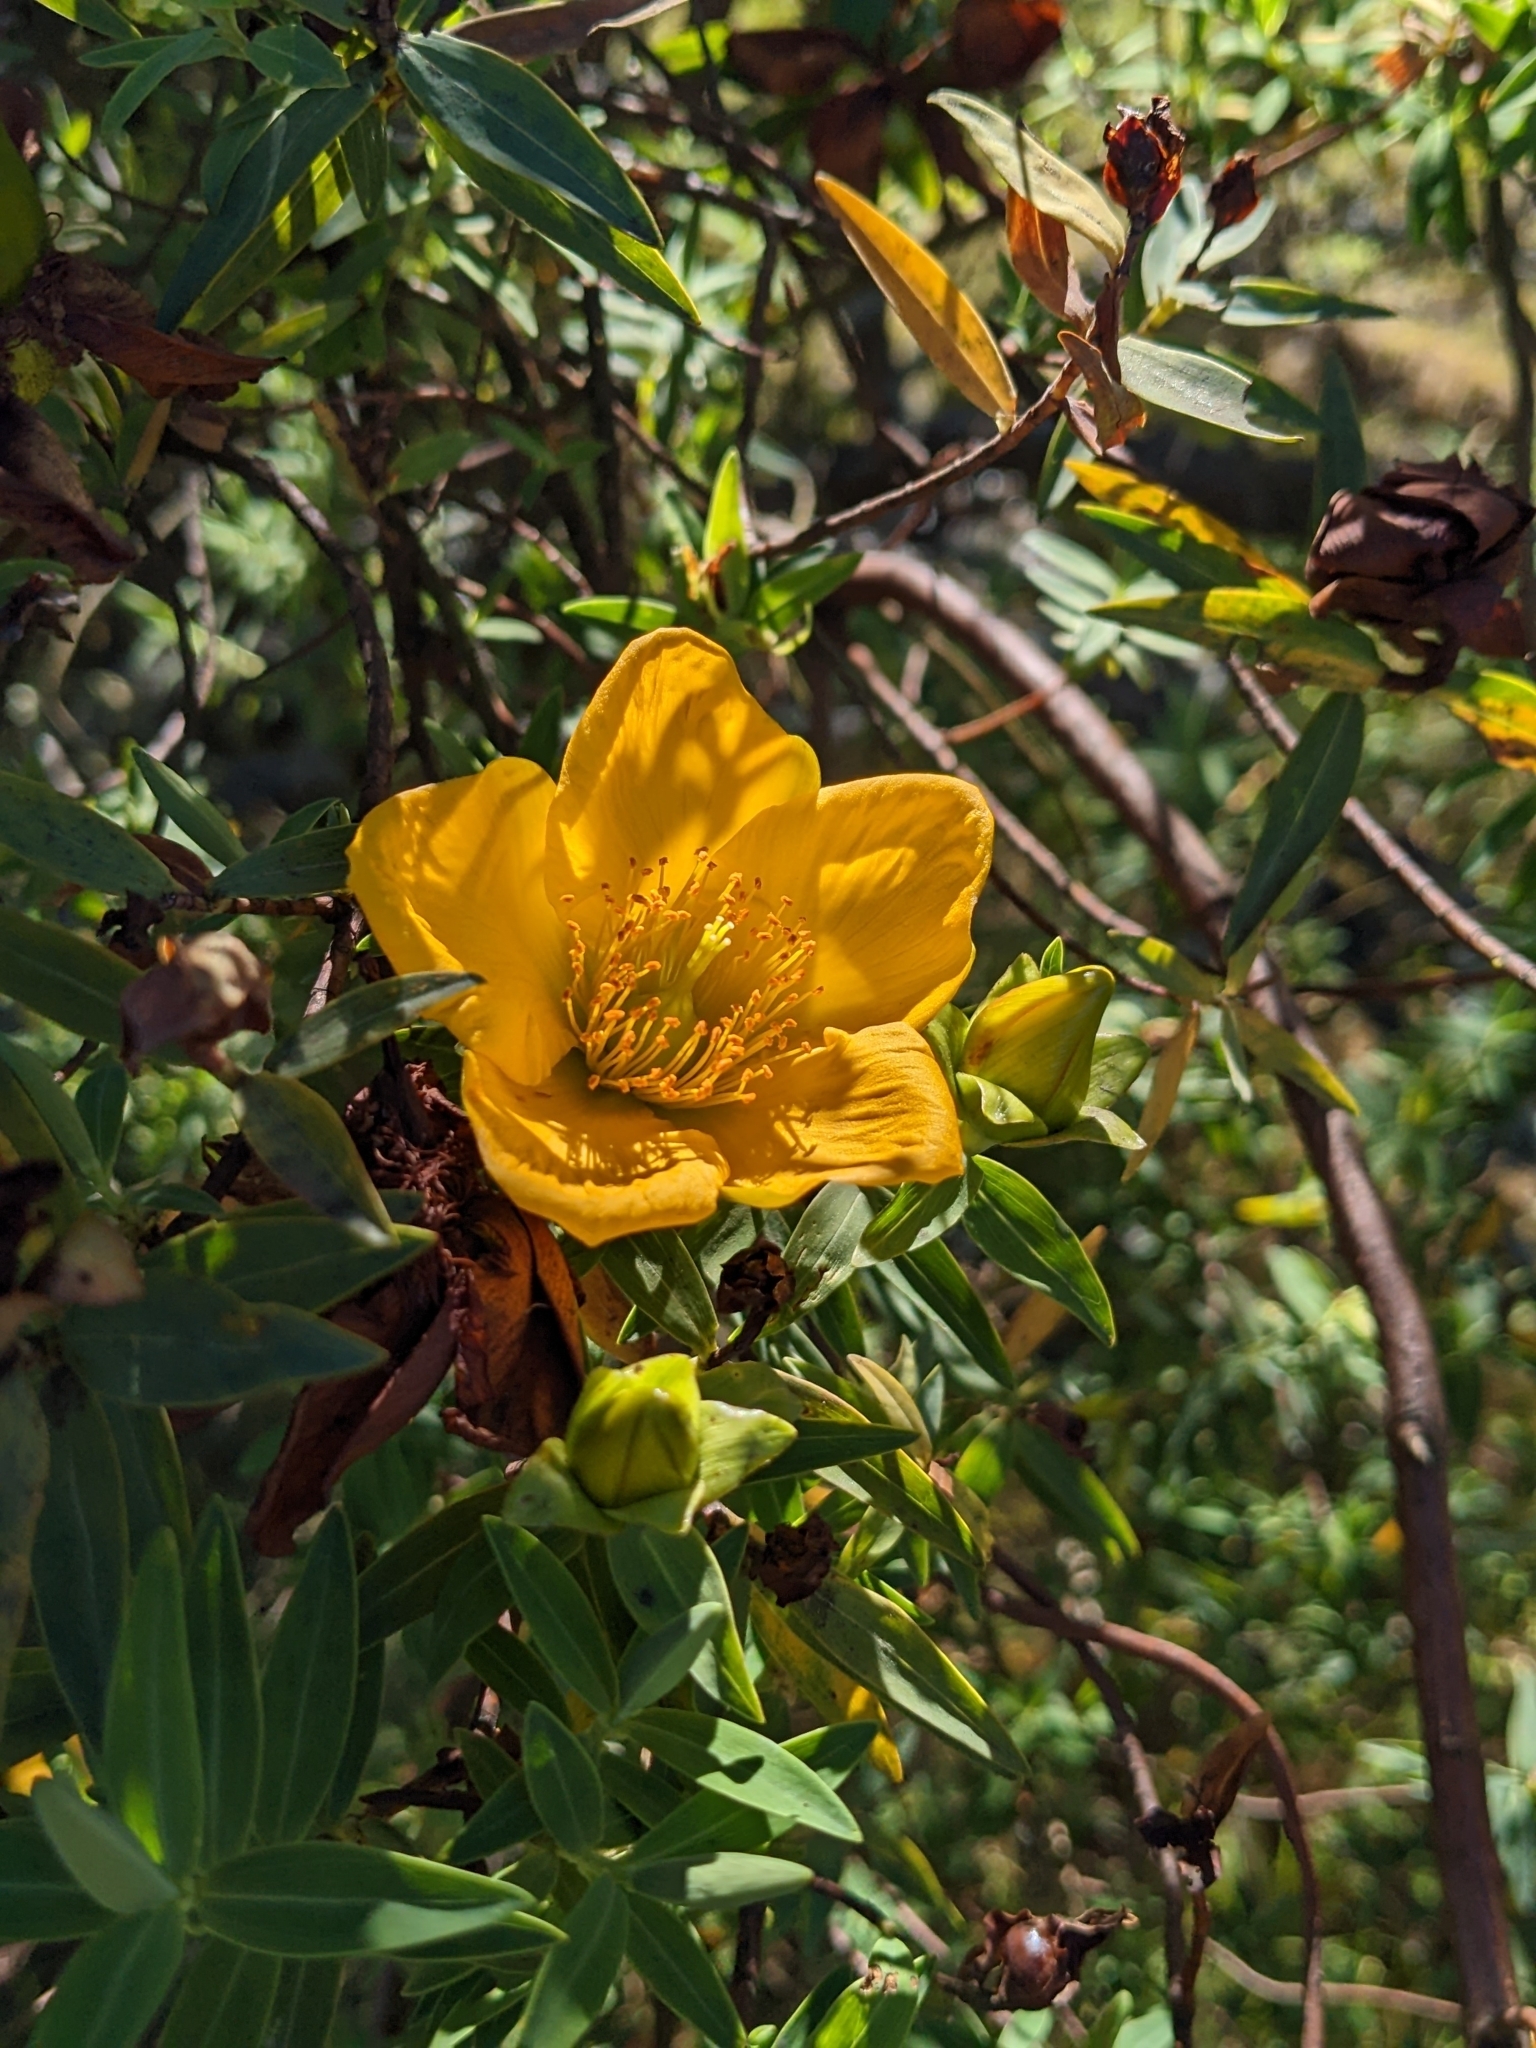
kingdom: Plantae
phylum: Tracheophyta
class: Magnoliopsida
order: Malpighiales
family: Hypericaceae
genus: Hypericum
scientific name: Hypericum lanceolatum
